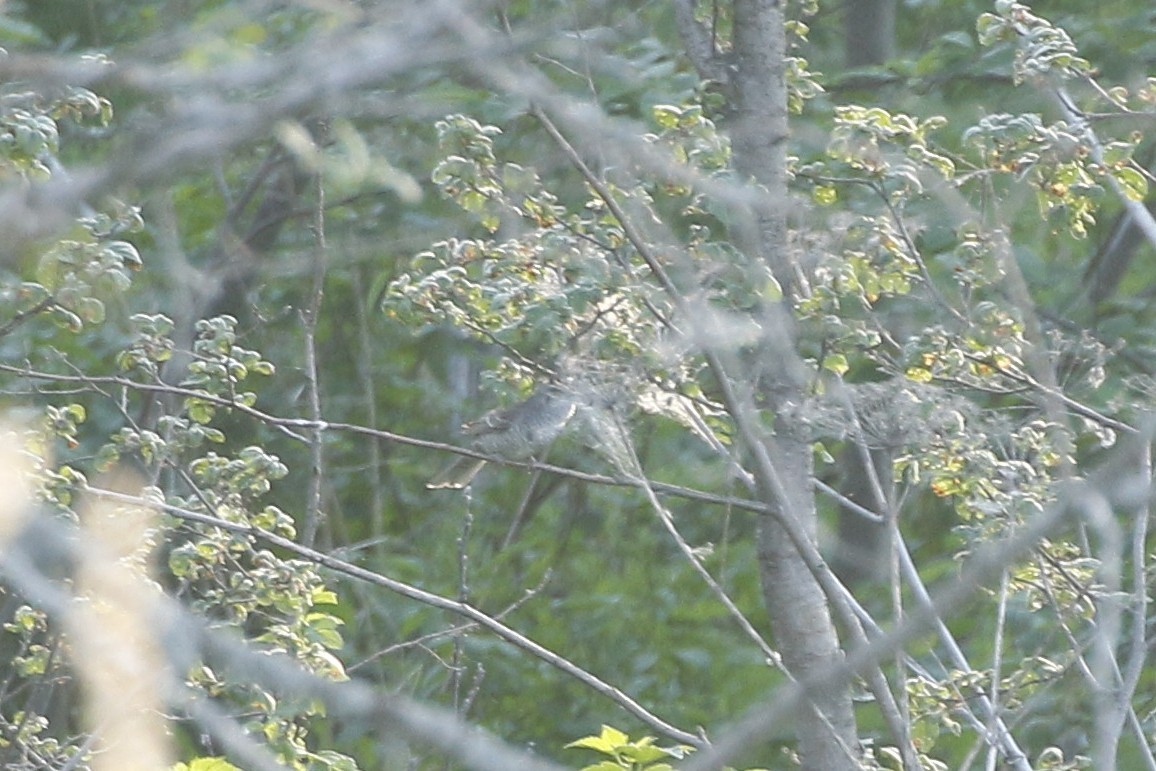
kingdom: Animalia
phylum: Chordata
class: Aves
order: Passeriformes
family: Sylviidae
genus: Sylvia
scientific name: Sylvia nisoria
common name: Barred warbler
